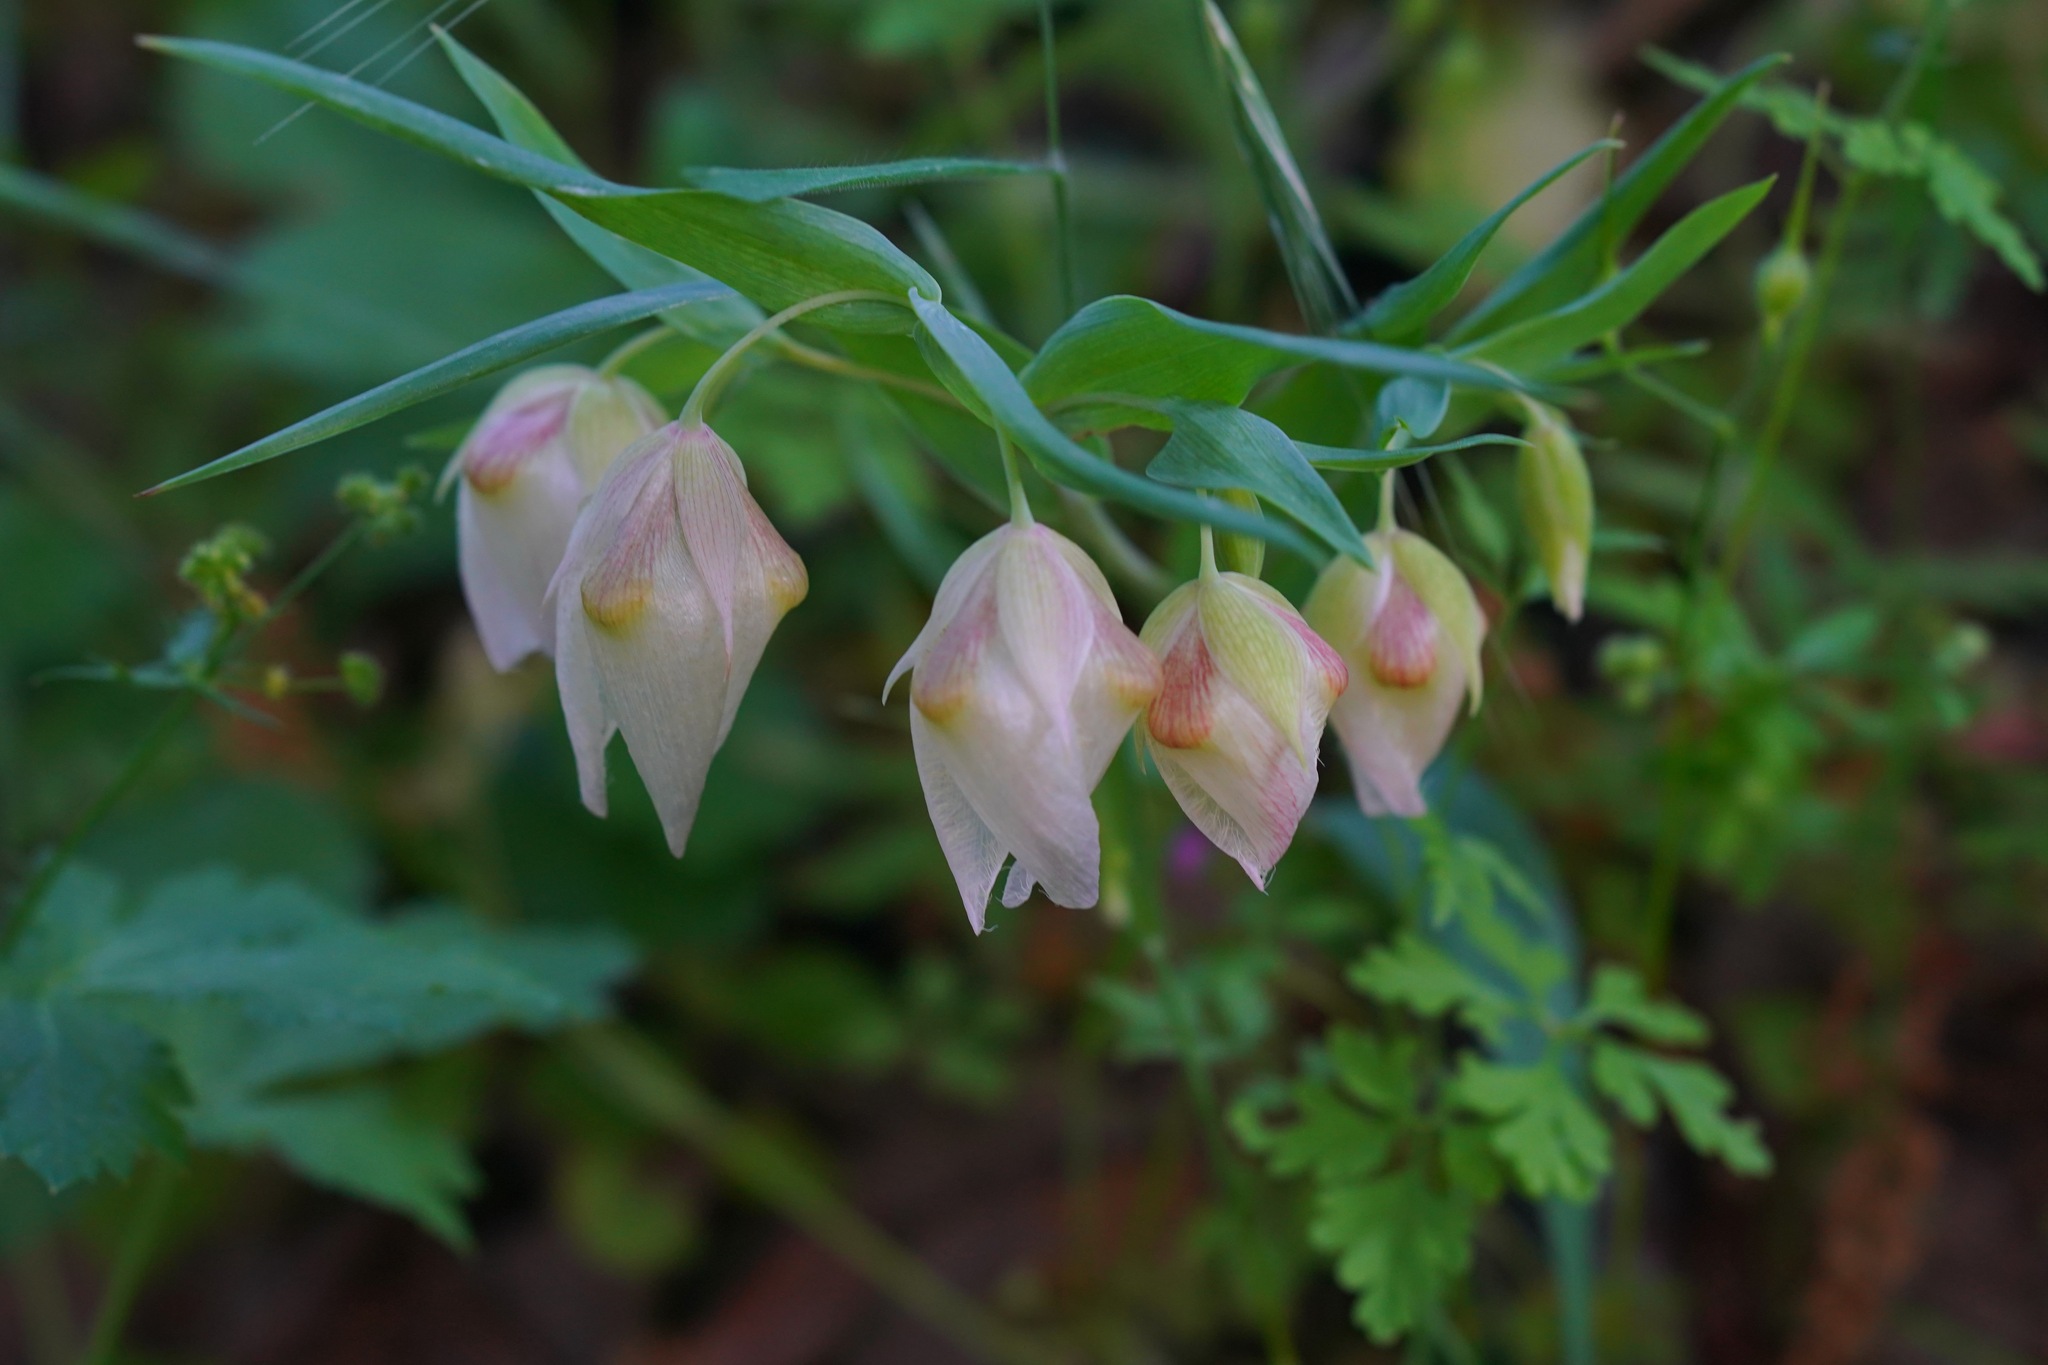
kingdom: Plantae
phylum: Tracheophyta
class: Liliopsida
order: Liliales
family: Liliaceae
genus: Calochortus
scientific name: Calochortus albus
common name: Fairy-lantern
